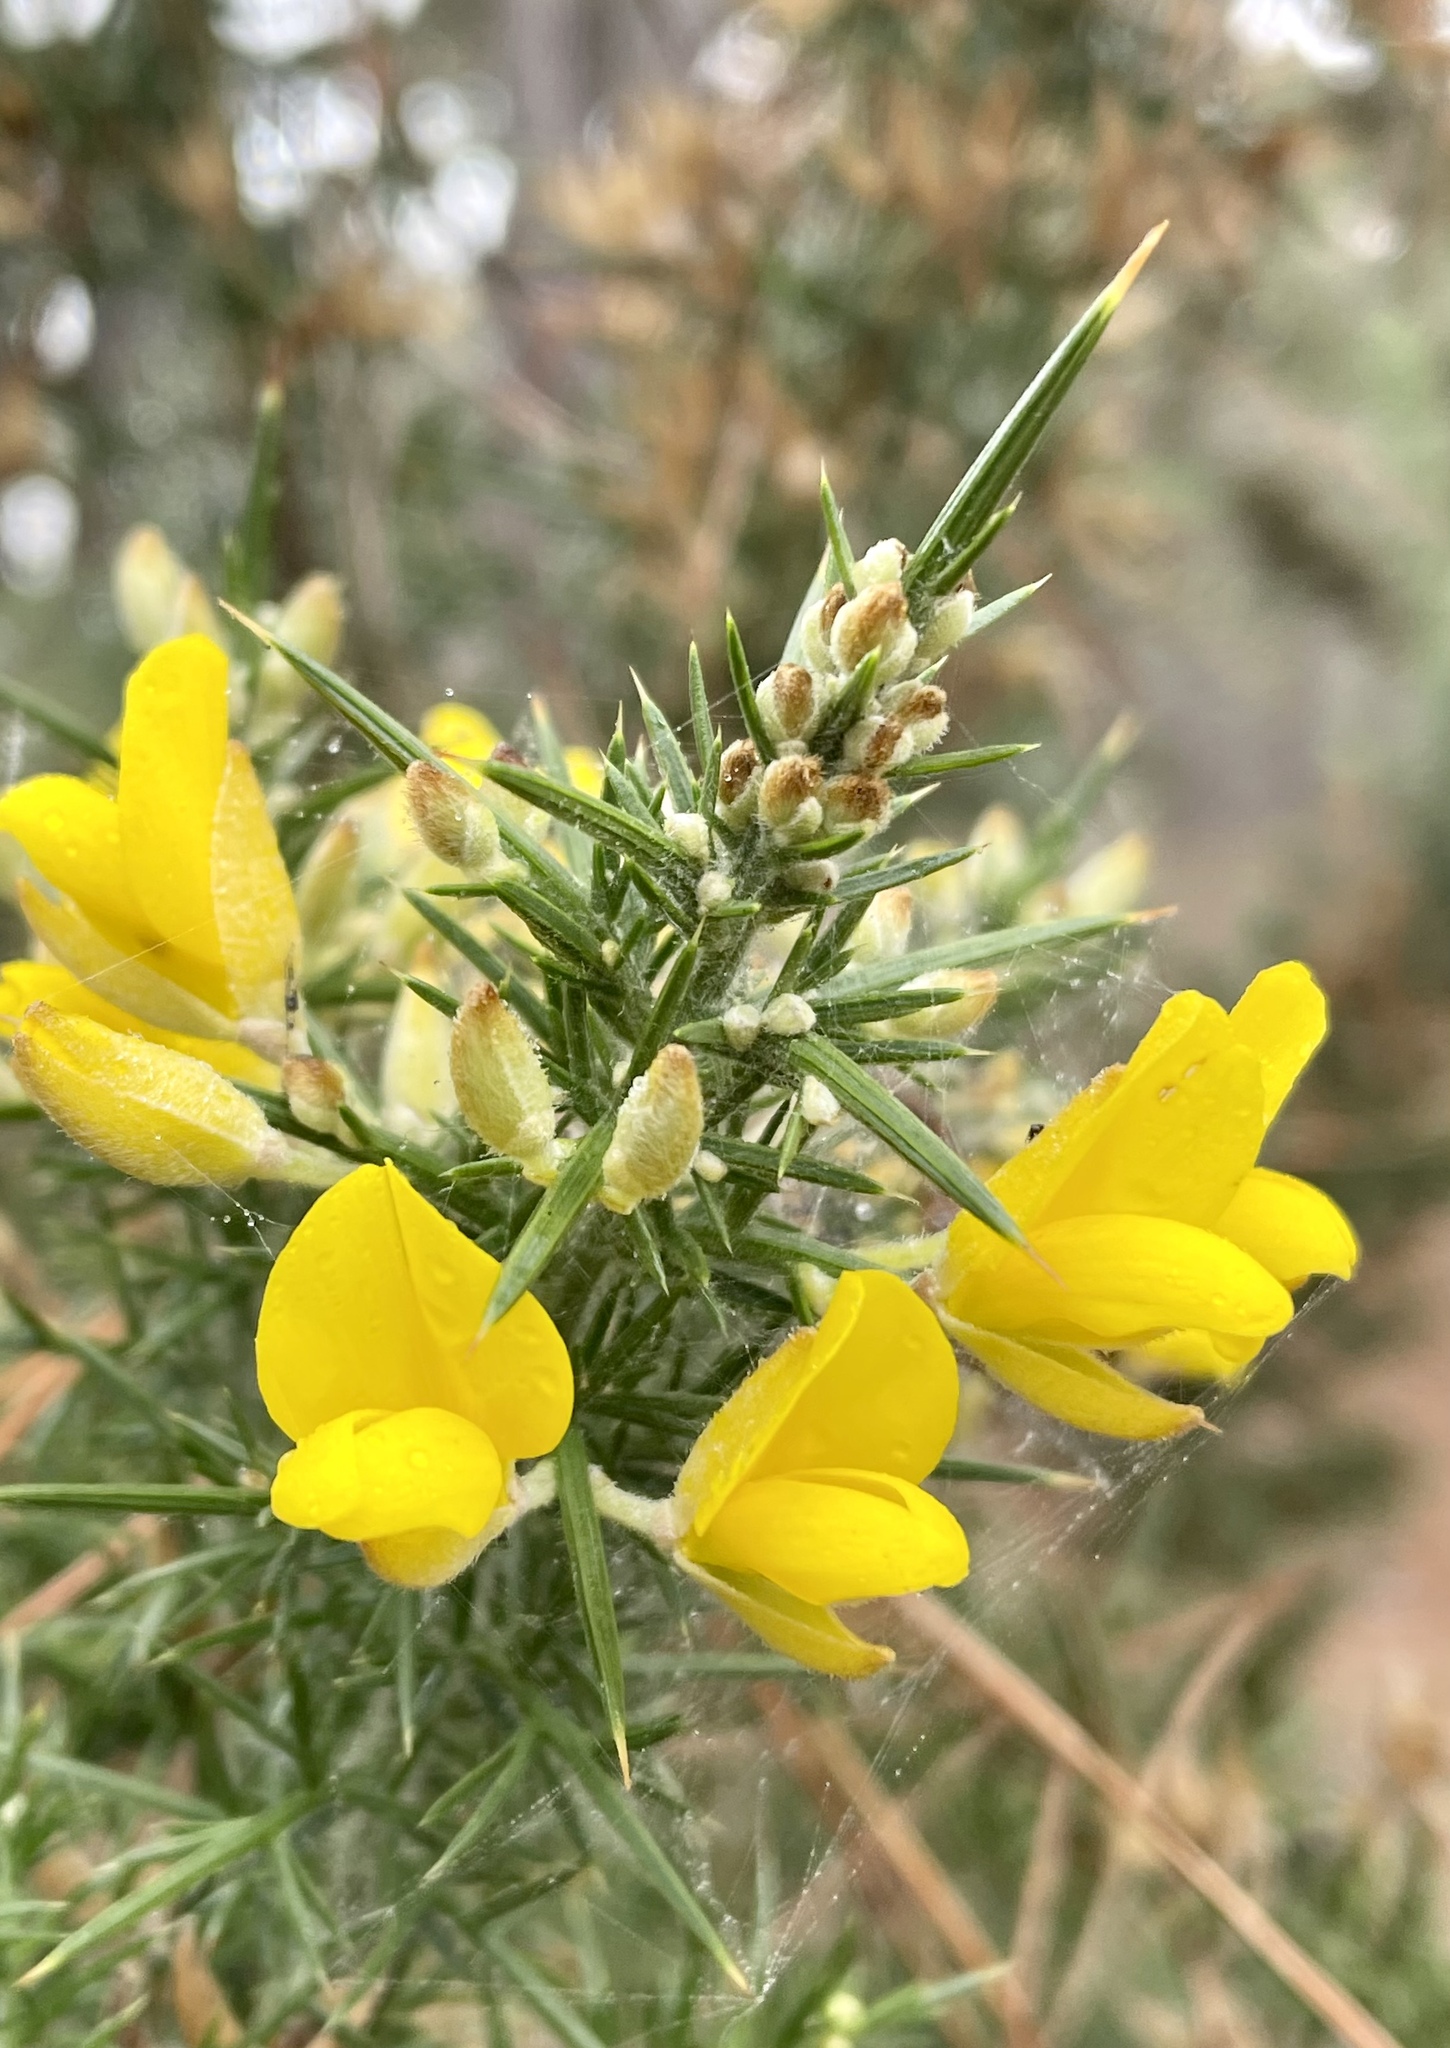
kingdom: Plantae
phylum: Tracheophyta
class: Magnoliopsida
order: Fabales
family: Fabaceae
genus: Ulex
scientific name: Ulex europaeus
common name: Common gorse
